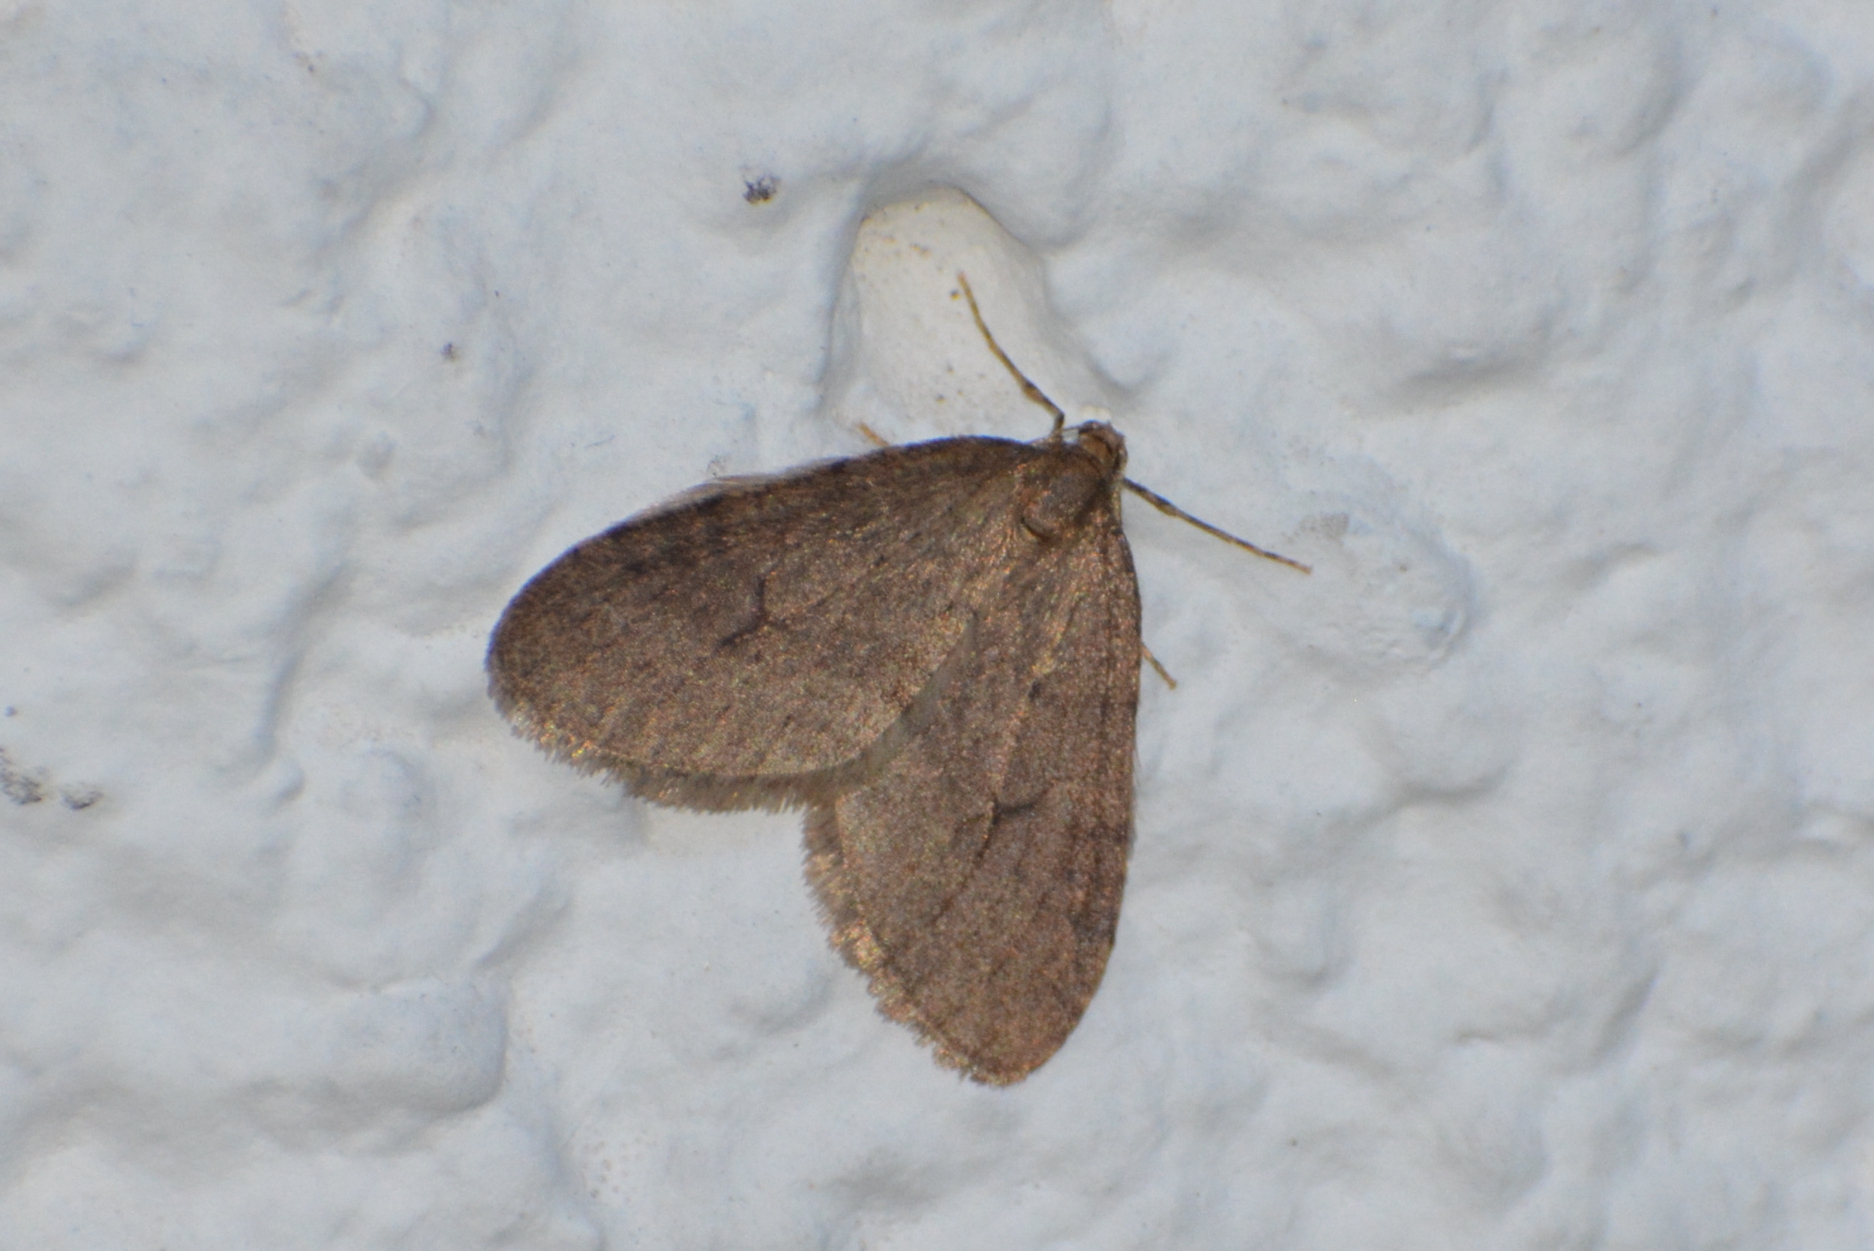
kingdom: Animalia
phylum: Arthropoda
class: Insecta
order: Lepidoptera
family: Geometridae
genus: Operophtera
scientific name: Operophtera brumata
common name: Winter moth
